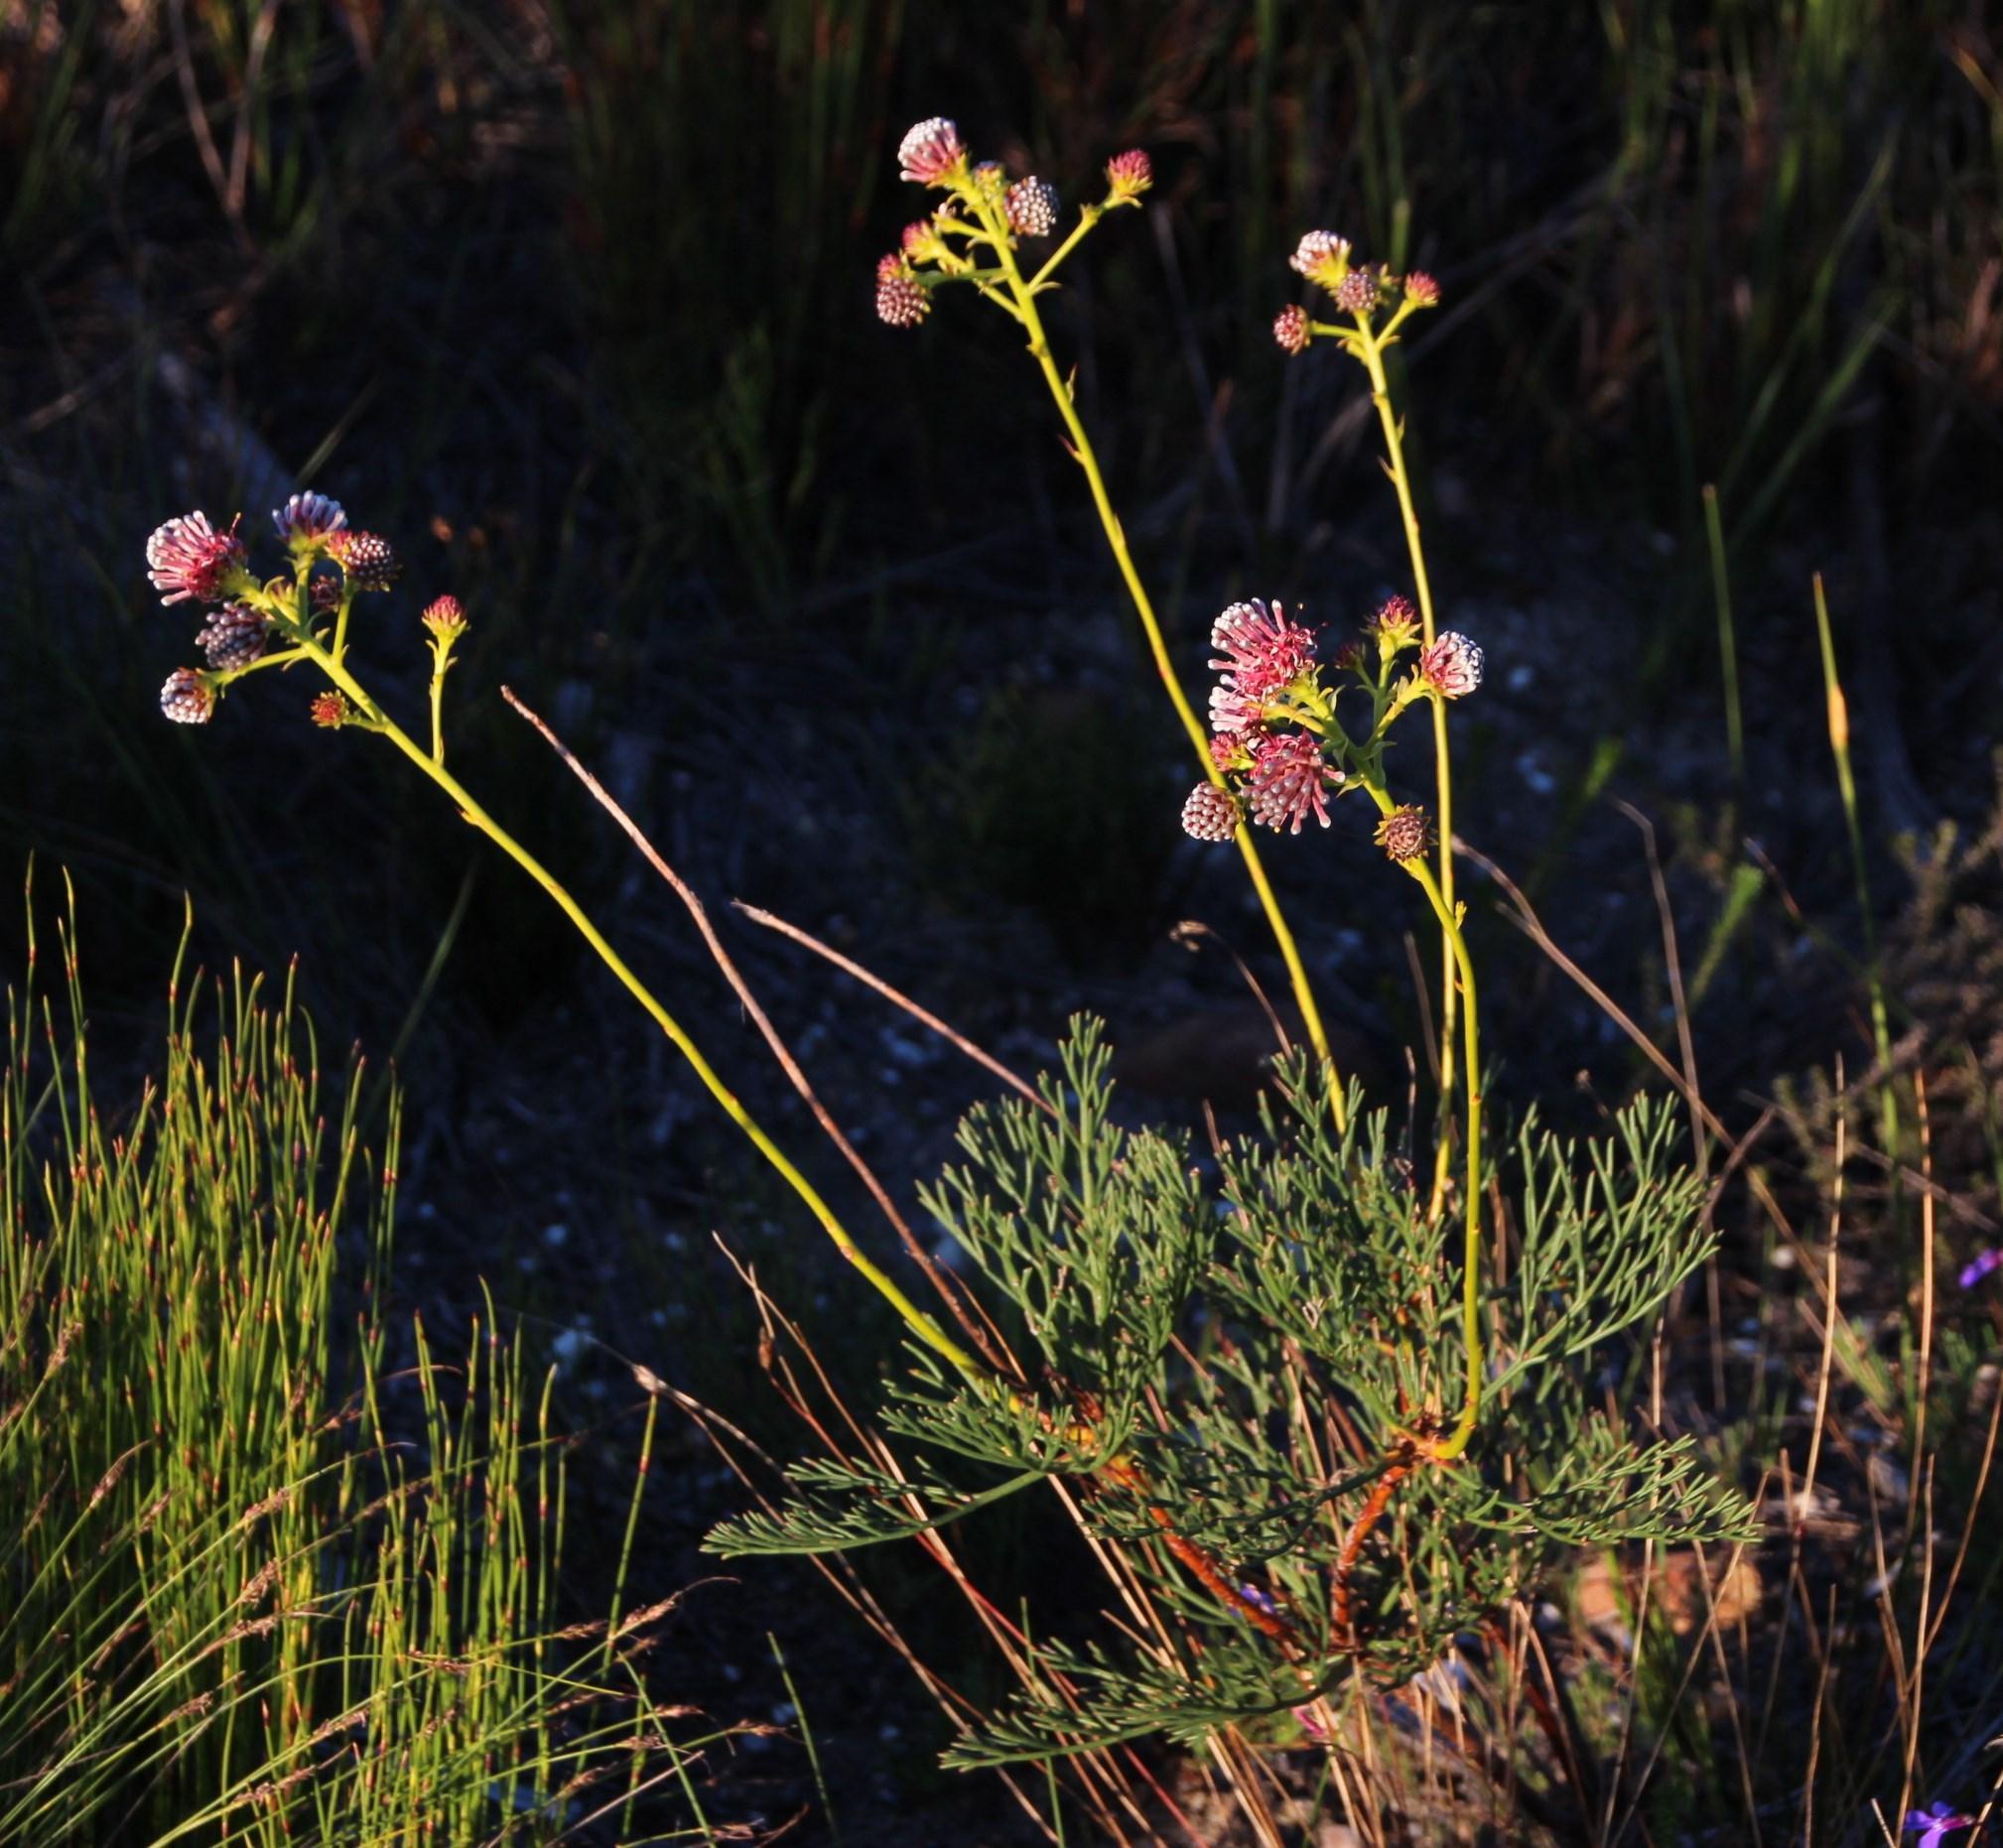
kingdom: Plantae
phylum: Tracheophyta
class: Magnoliopsida
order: Proteales
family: Proteaceae
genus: Serruria
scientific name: Serruria elongata
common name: Long-stalk spiderhead
